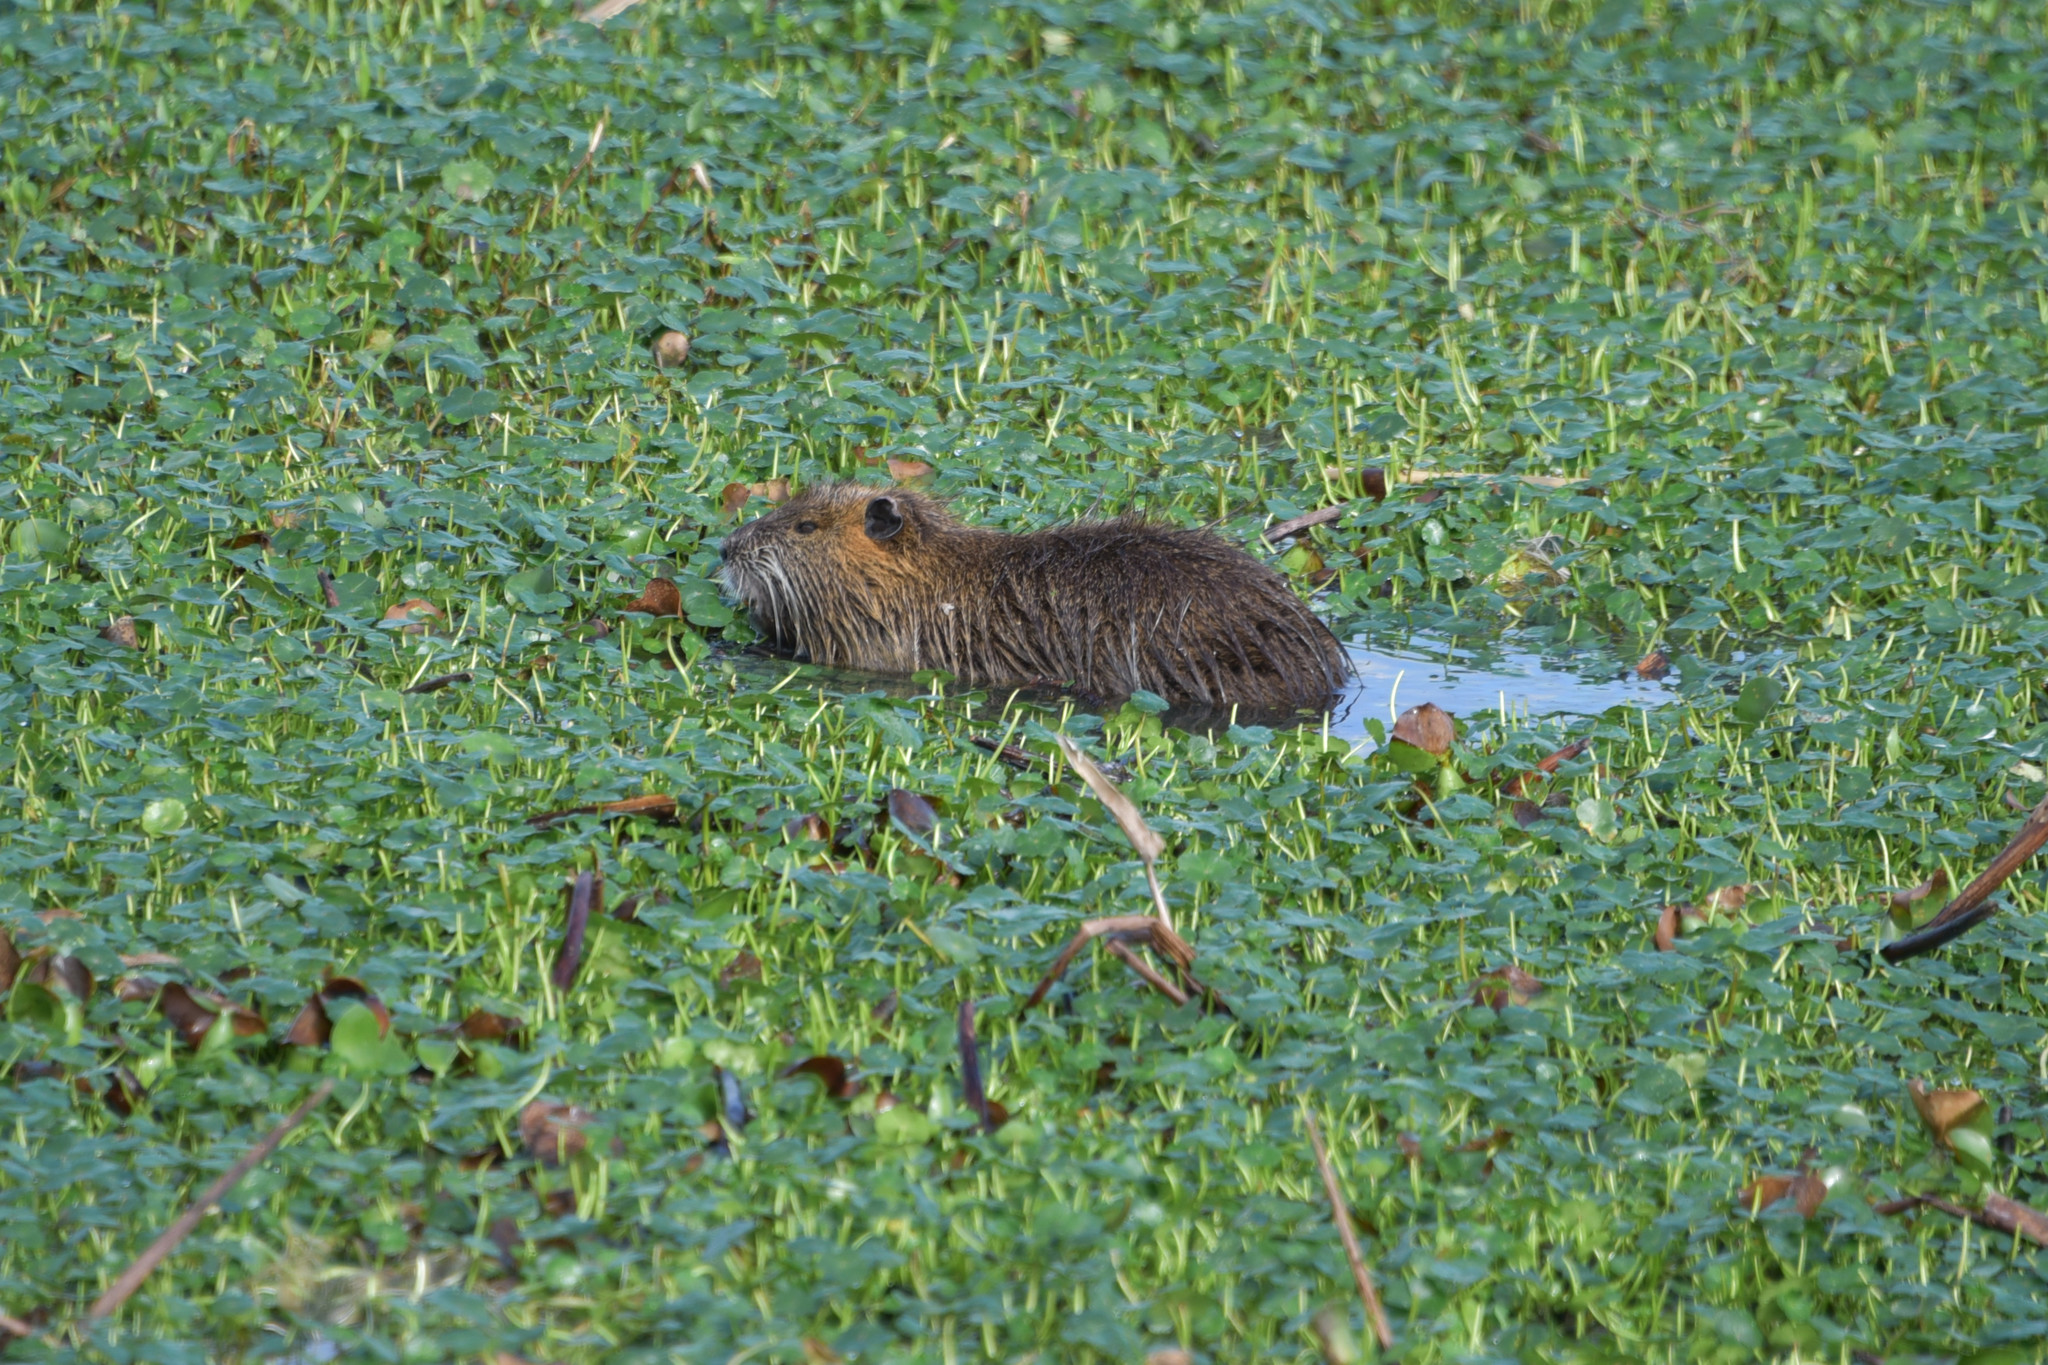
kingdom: Animalia
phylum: Chordata
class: Mammalia
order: Rodentia
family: Myocastoridae
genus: Myocastor
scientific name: Myocastor coypus
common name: Coypu
